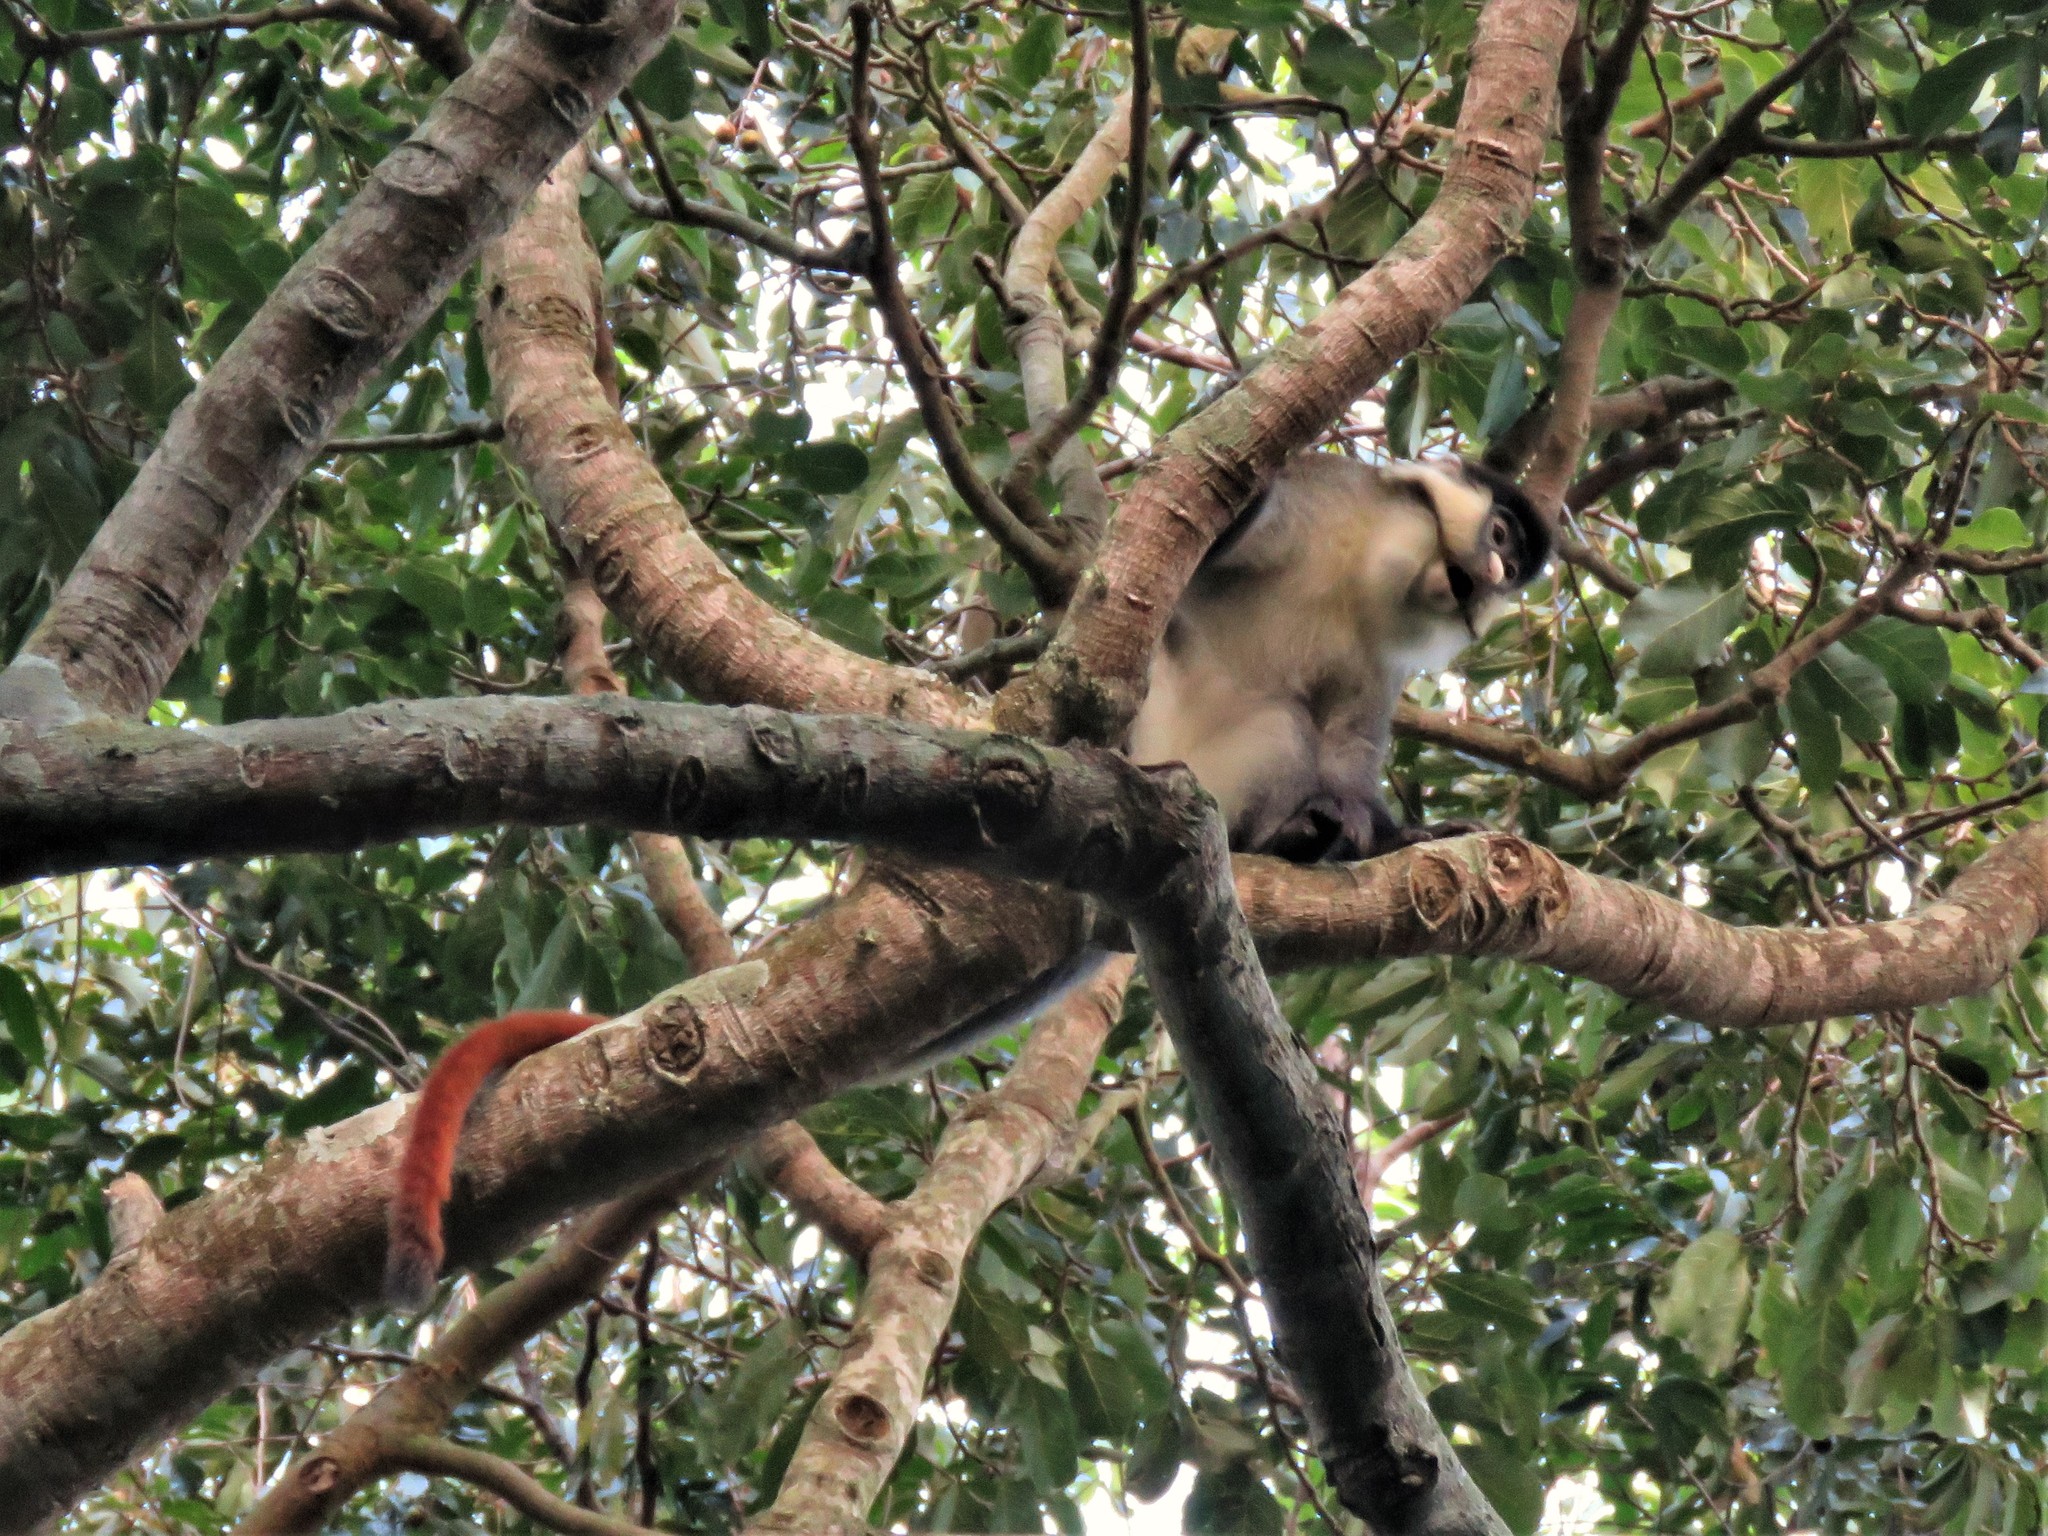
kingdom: Animalia
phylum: Chordata
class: Mammalia
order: Primates
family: Cercopithecidae
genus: Cercopithecus
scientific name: Cercopithecus ascanius
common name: Red-tailed monkey
